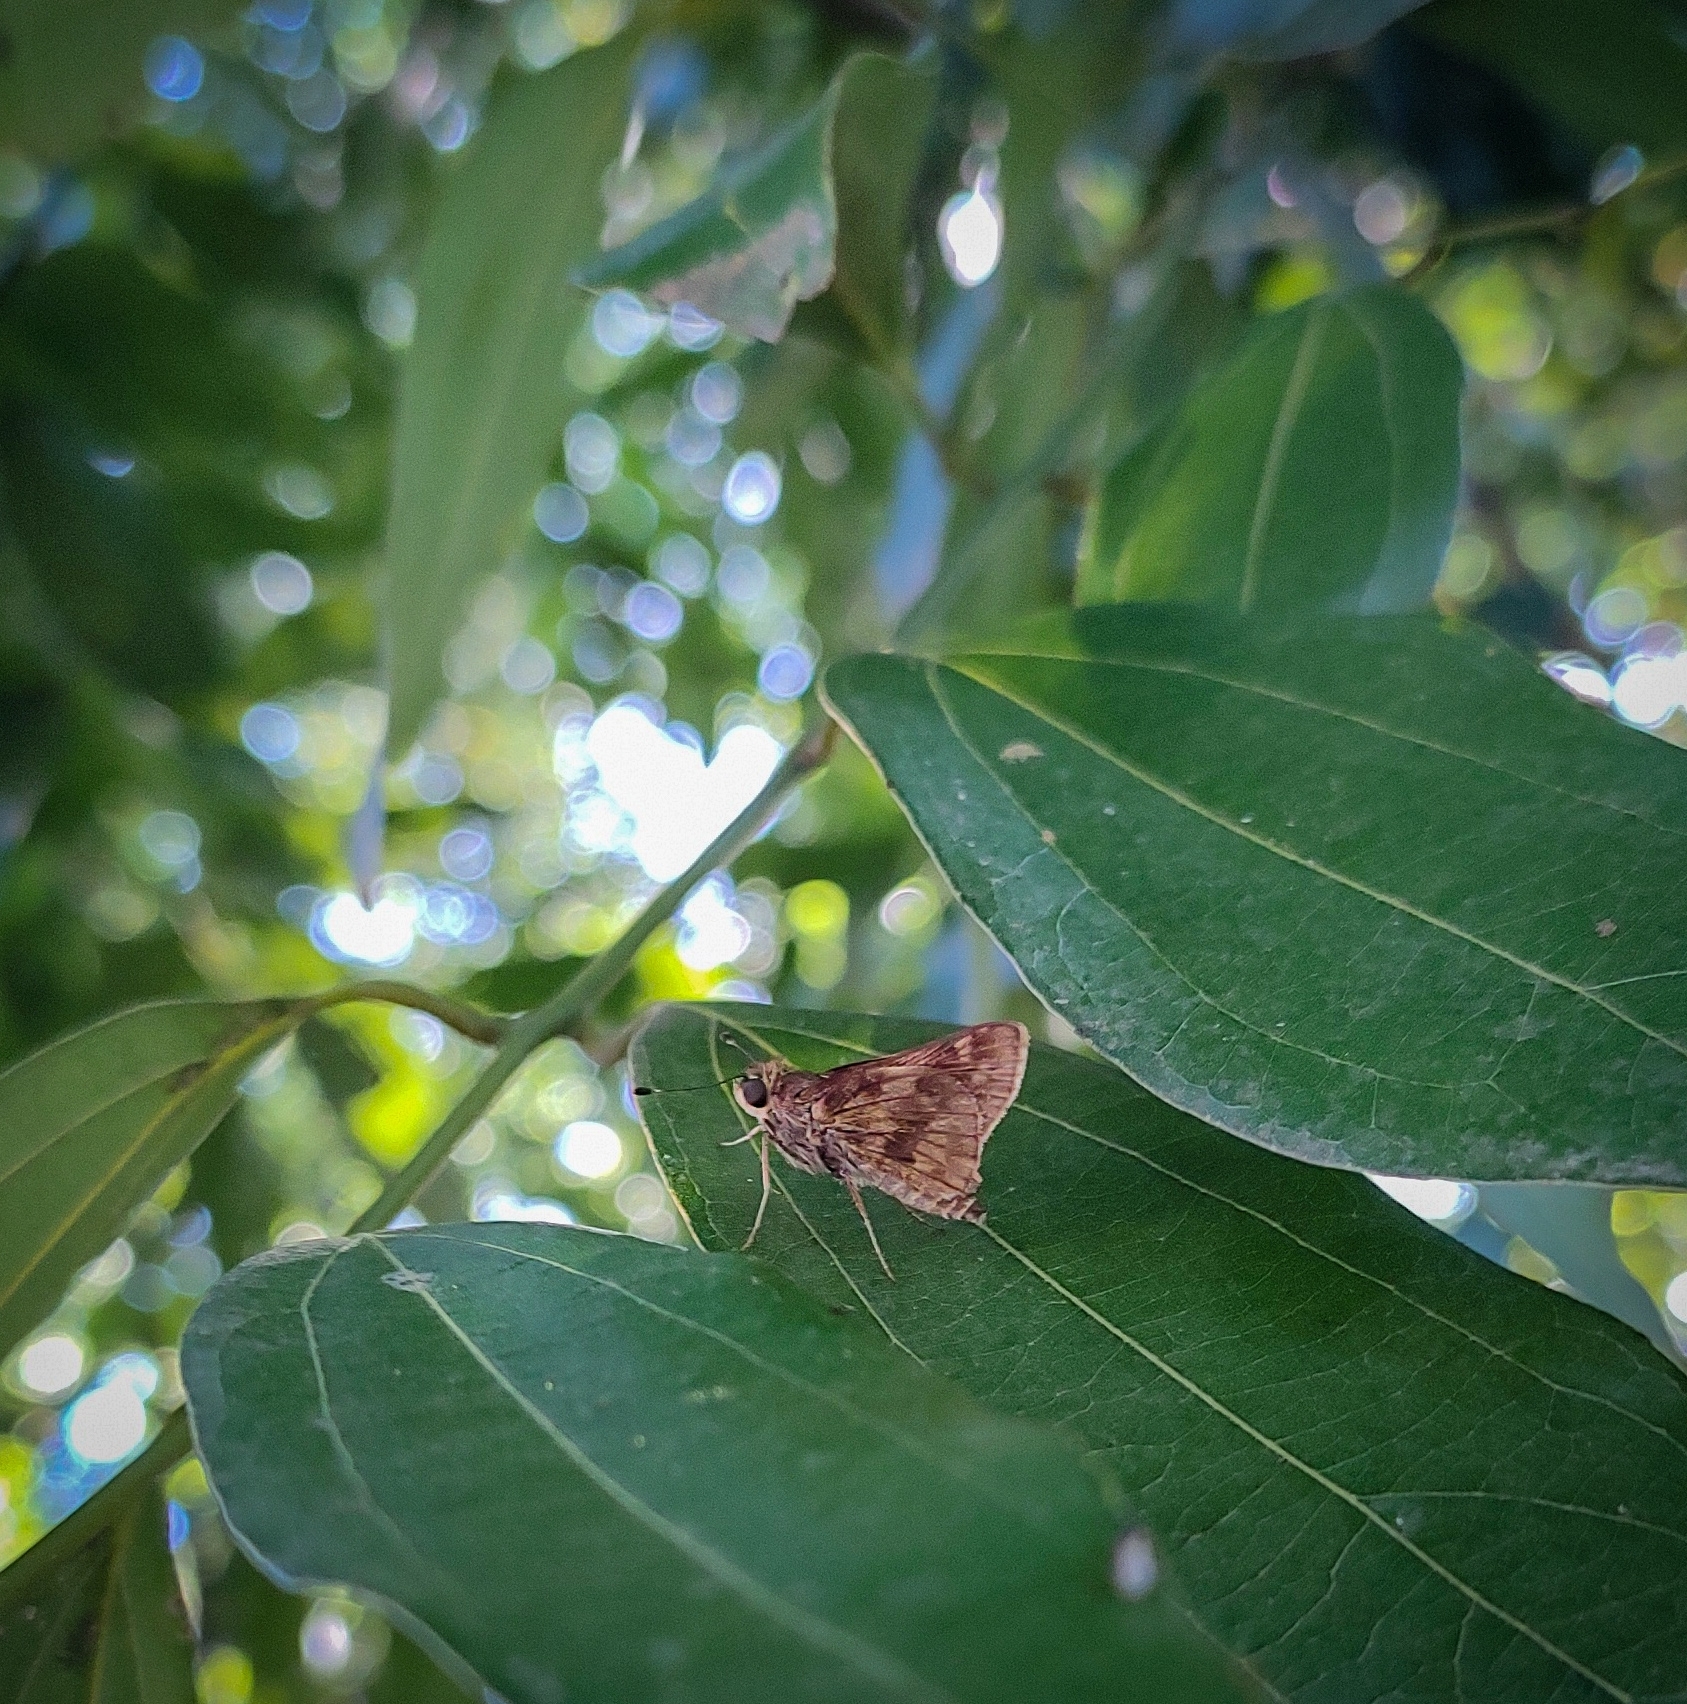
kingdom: Animalia
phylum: Arthropoda
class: Insecta
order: Lepidoptera
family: Hesperiidae
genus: Pompeius
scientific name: Pompeius pompeius
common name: Pompeius skipper
